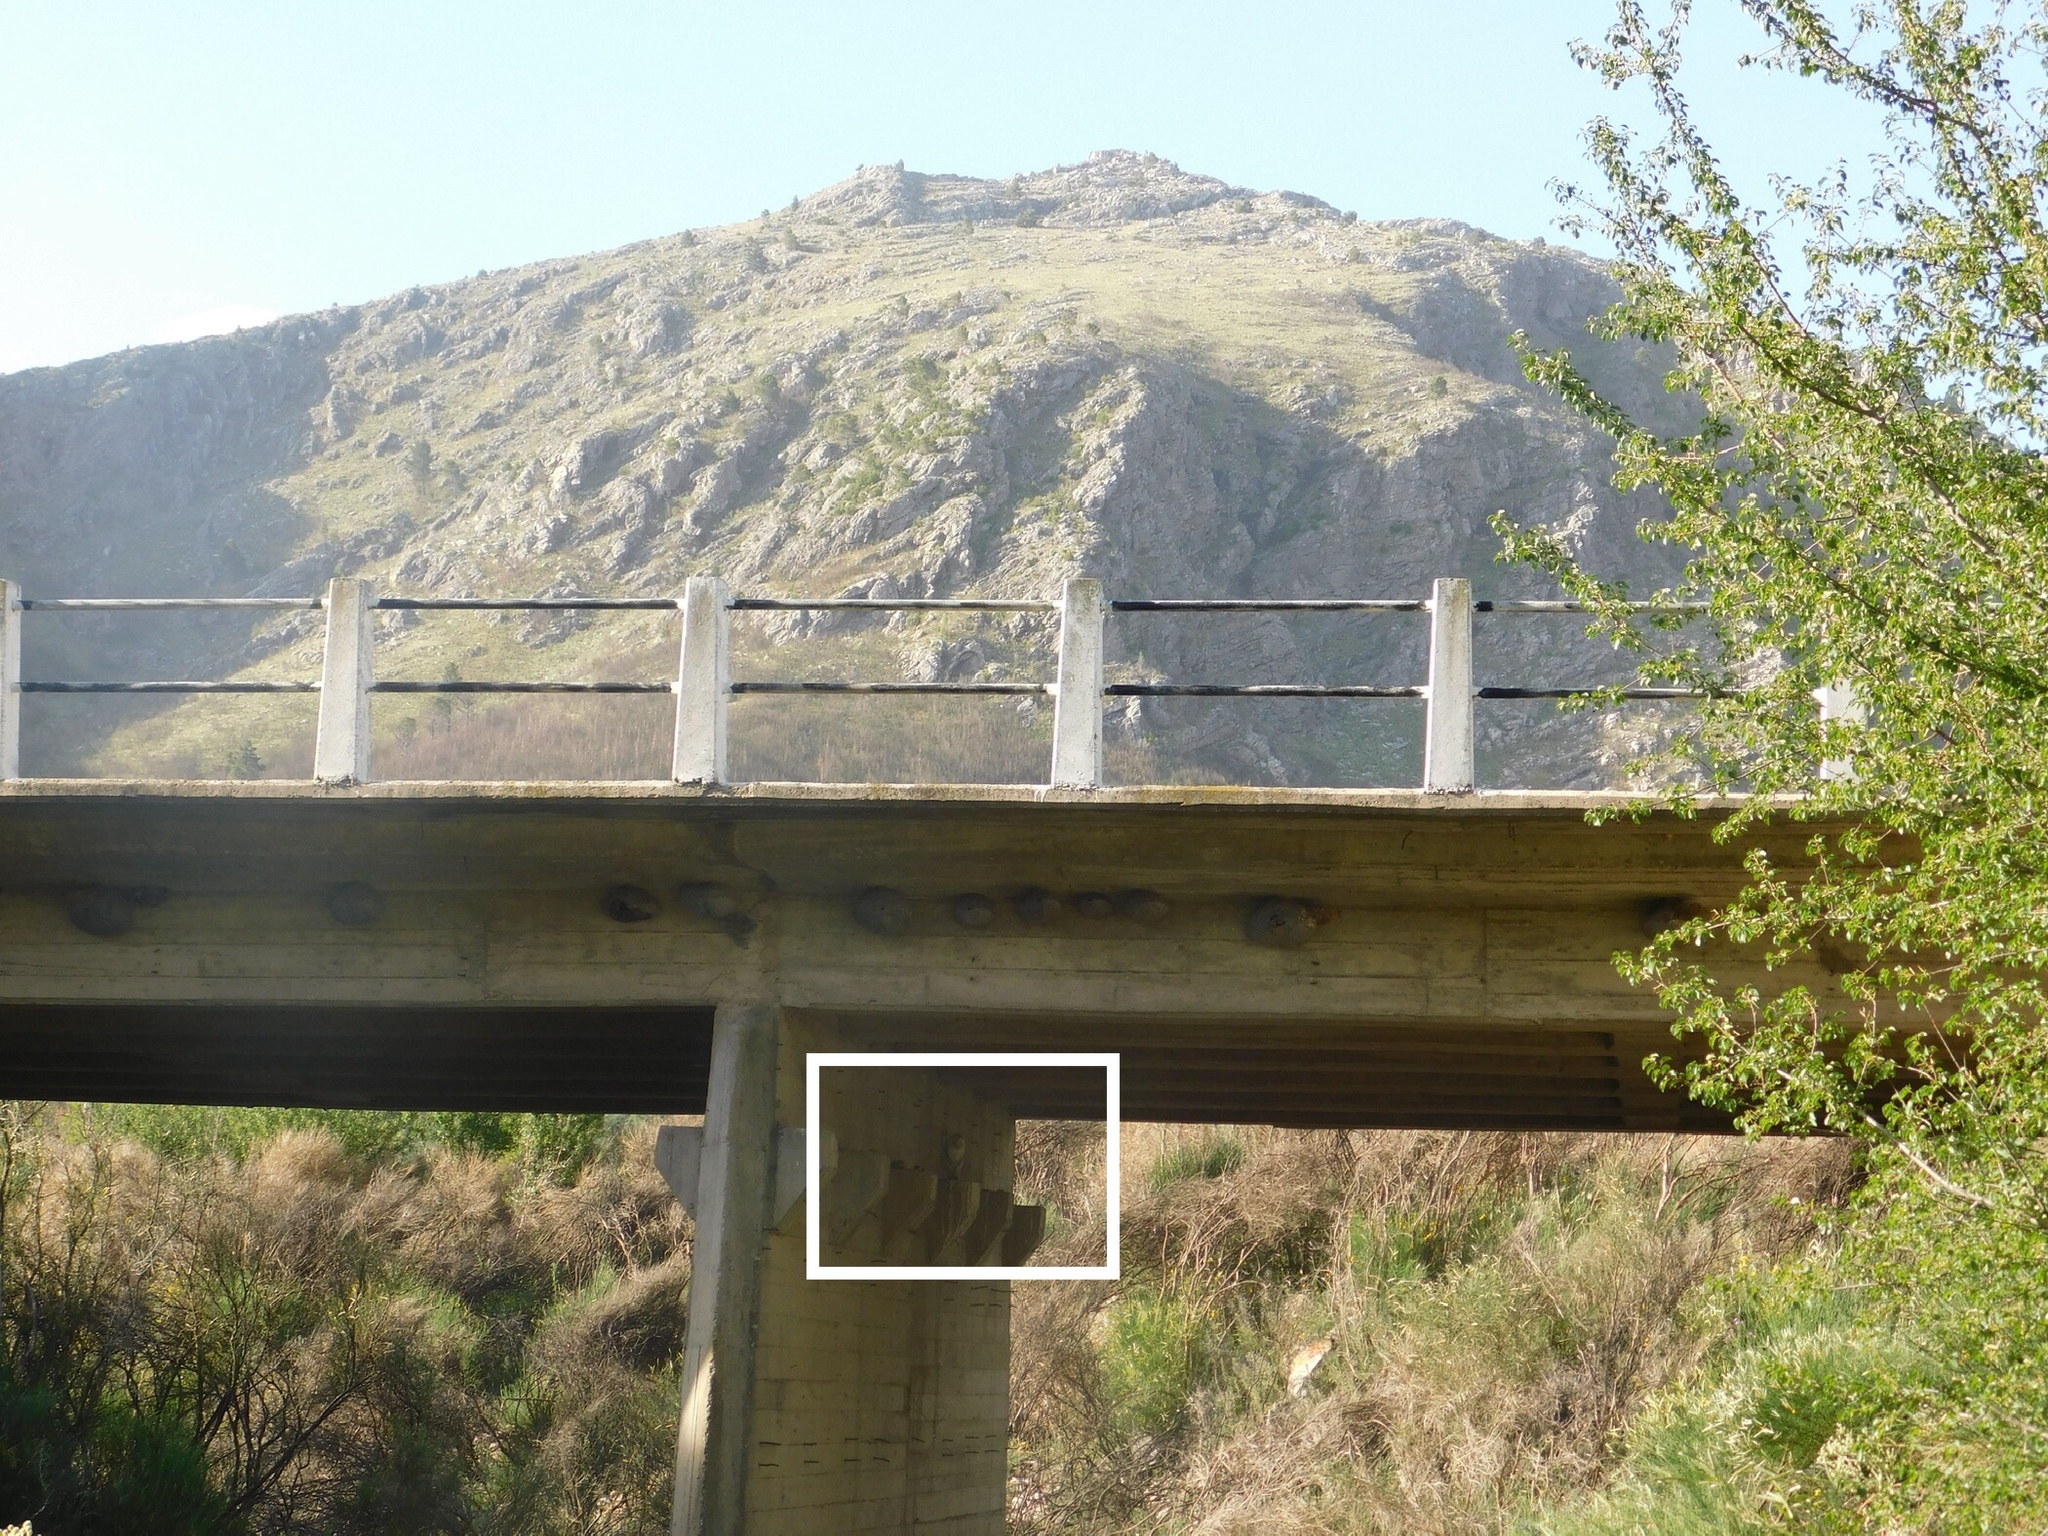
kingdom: Animalia
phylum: Chordata
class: Aves
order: Strigiformes
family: Tytonidae
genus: Tyto
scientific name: Tyto furcata
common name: American barn owl
